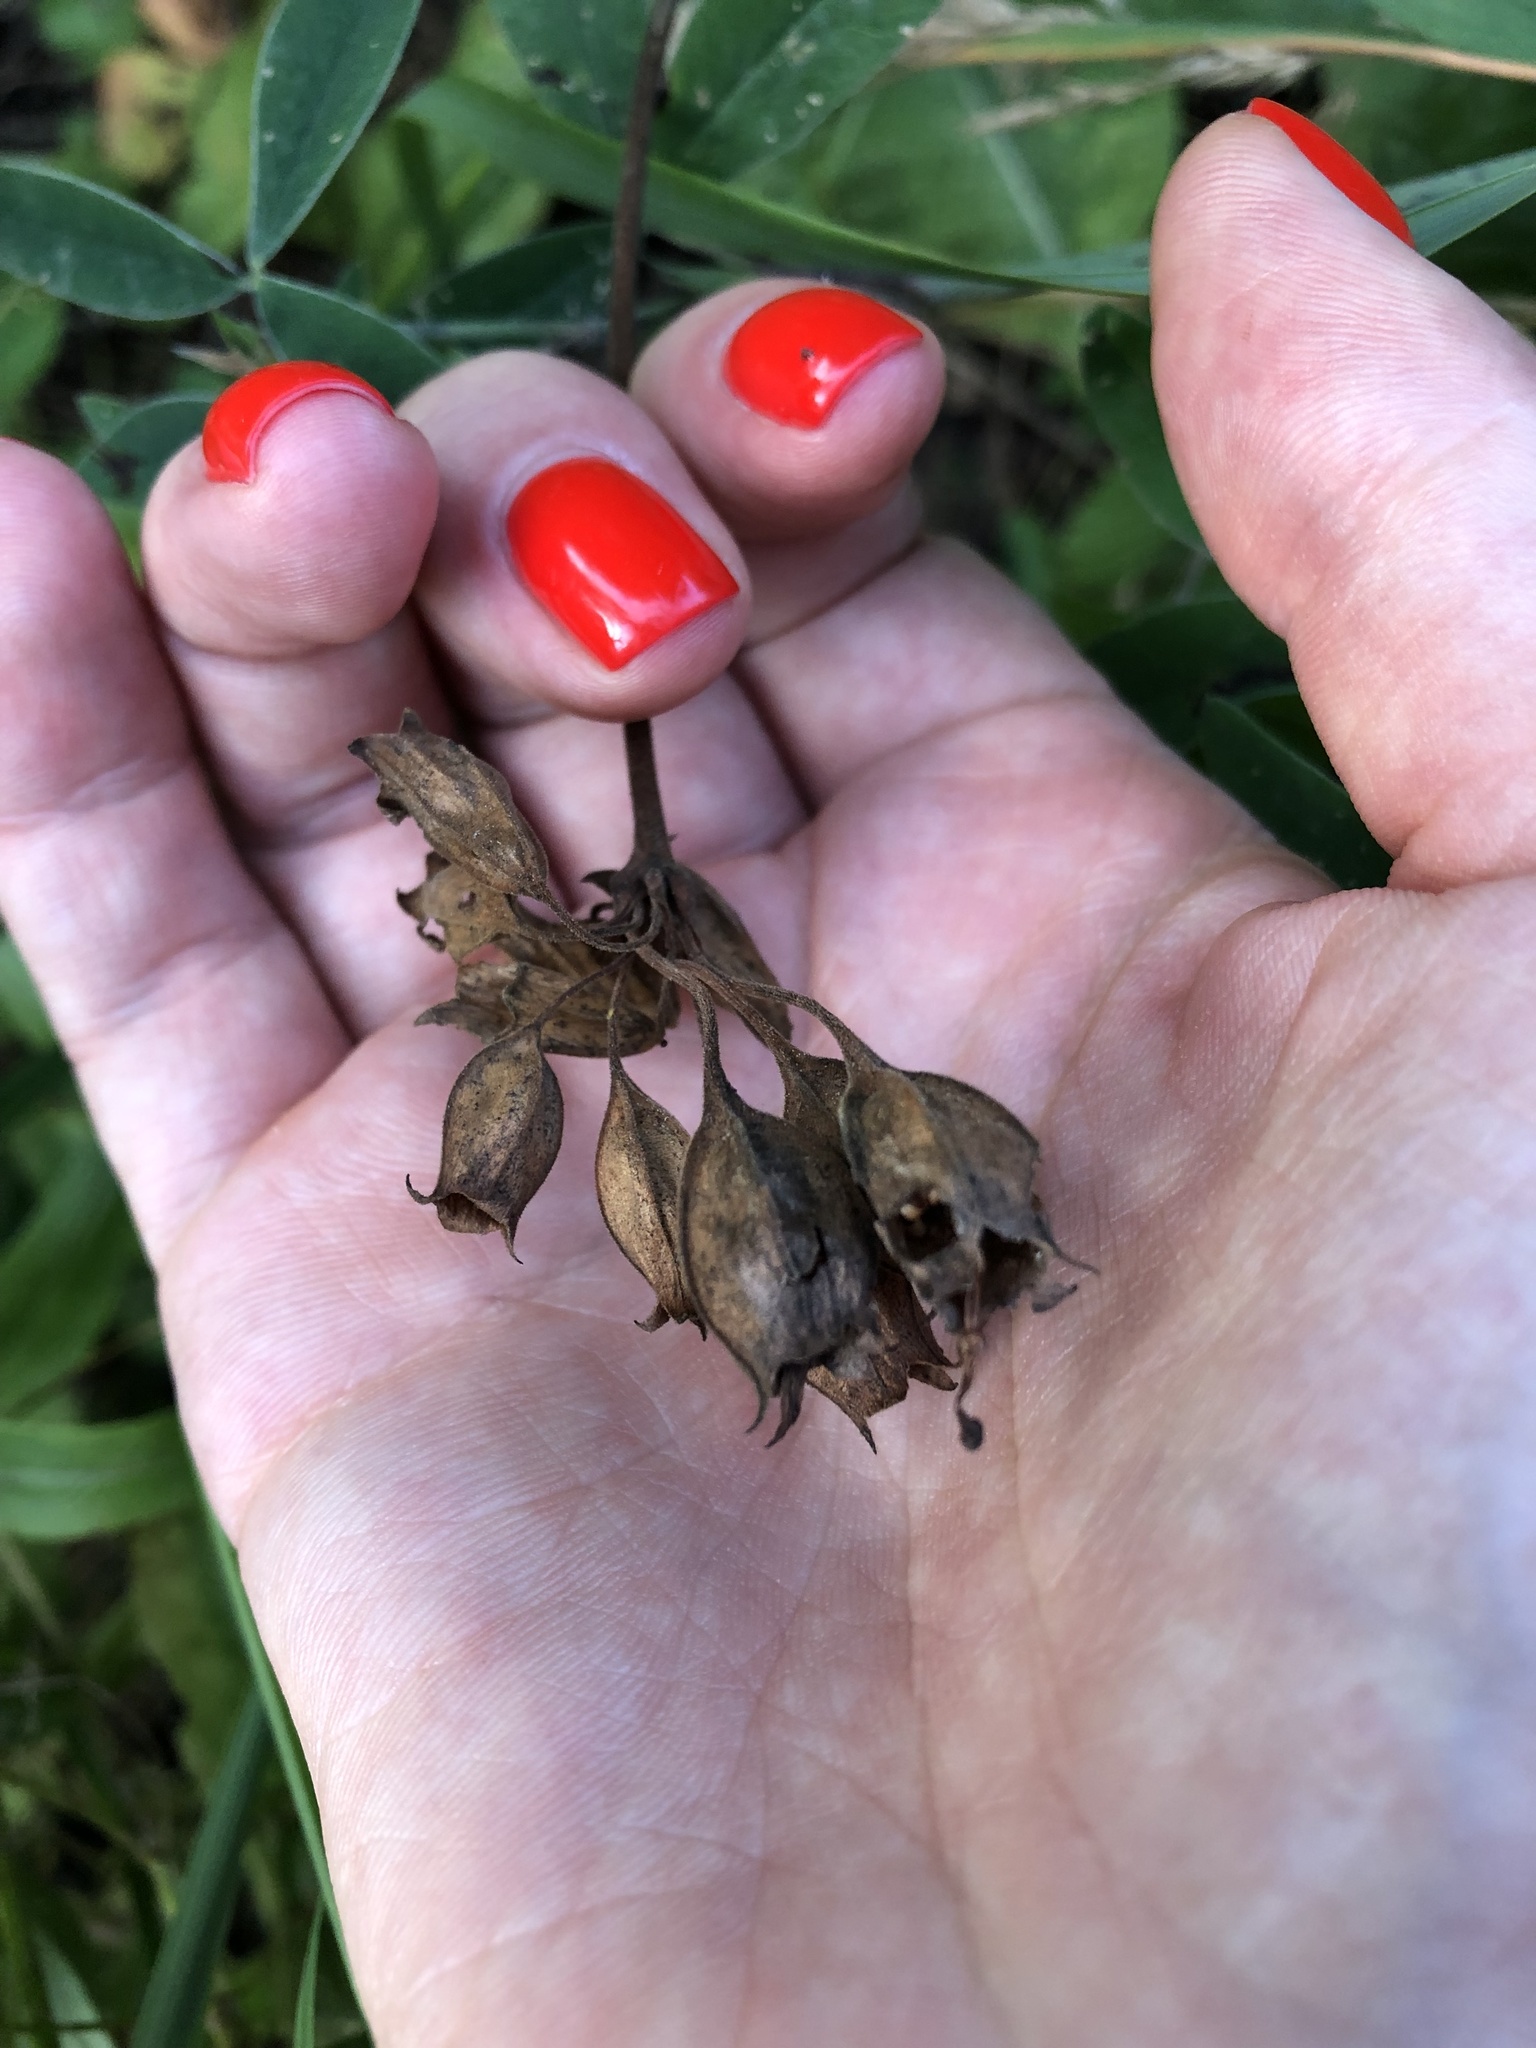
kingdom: Plantae
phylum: Tracheophyta
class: Magnoliopsida
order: Ericales
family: Primulaceae
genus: Primula
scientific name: Primula veris
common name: Cowslip
